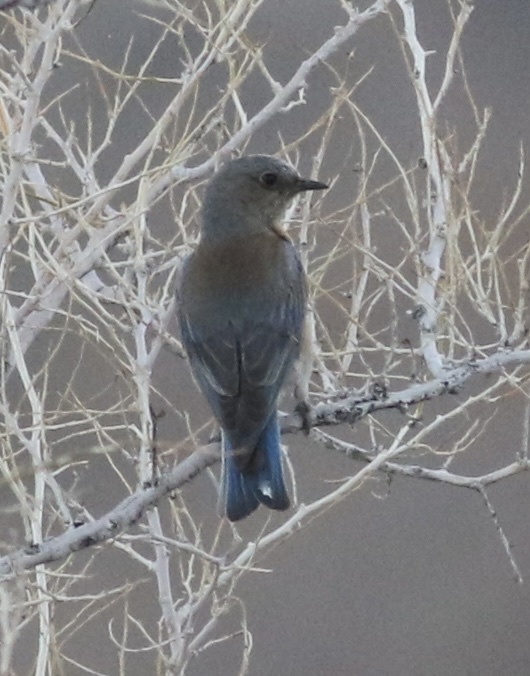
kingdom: Animalia
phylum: Chordata
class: Aves
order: Passeriformes
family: Turdidae
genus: Sialia
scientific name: Sialia mexicana
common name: Western bluebird
